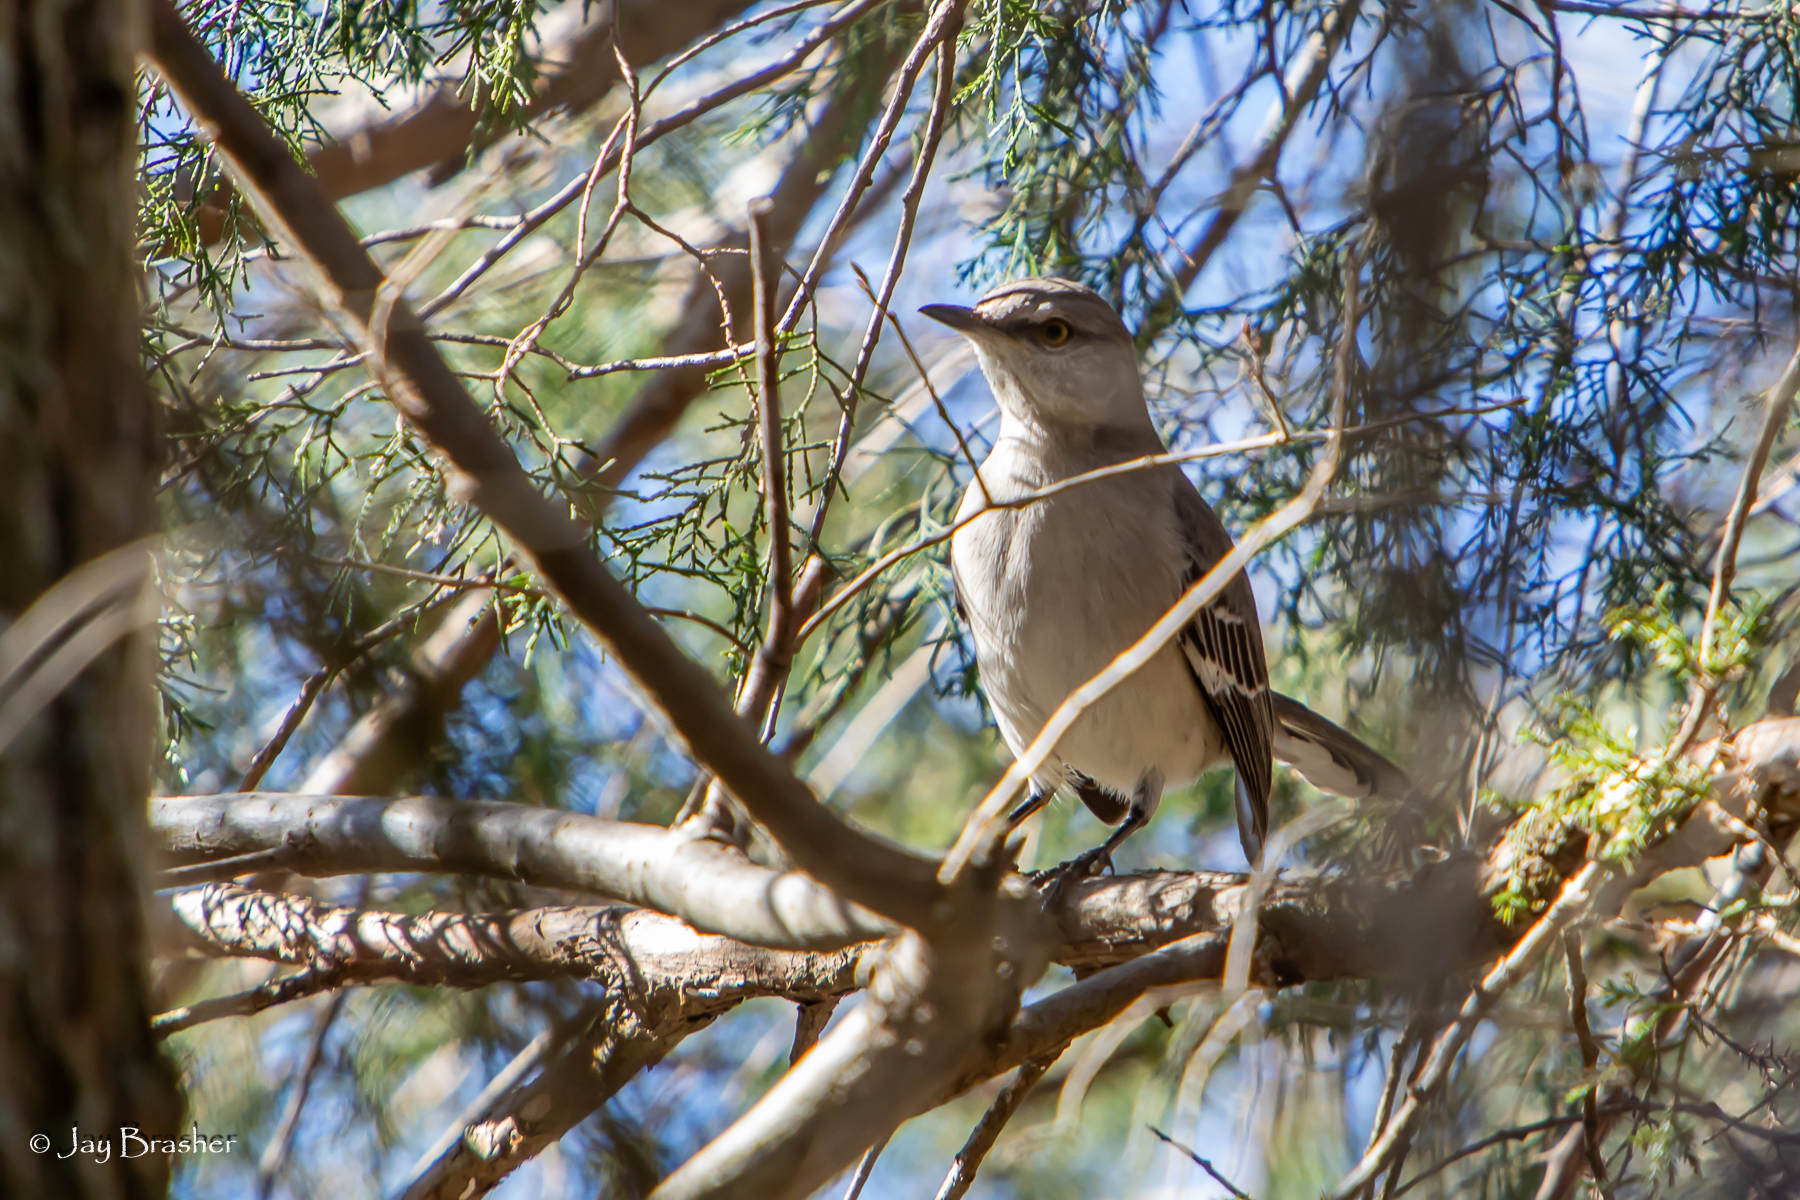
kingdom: Animalia
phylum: Chordata
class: Aves
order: Passeriformes
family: Mimidae
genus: Mimus
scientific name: Mimus polyglottos
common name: Northern mockingbird
